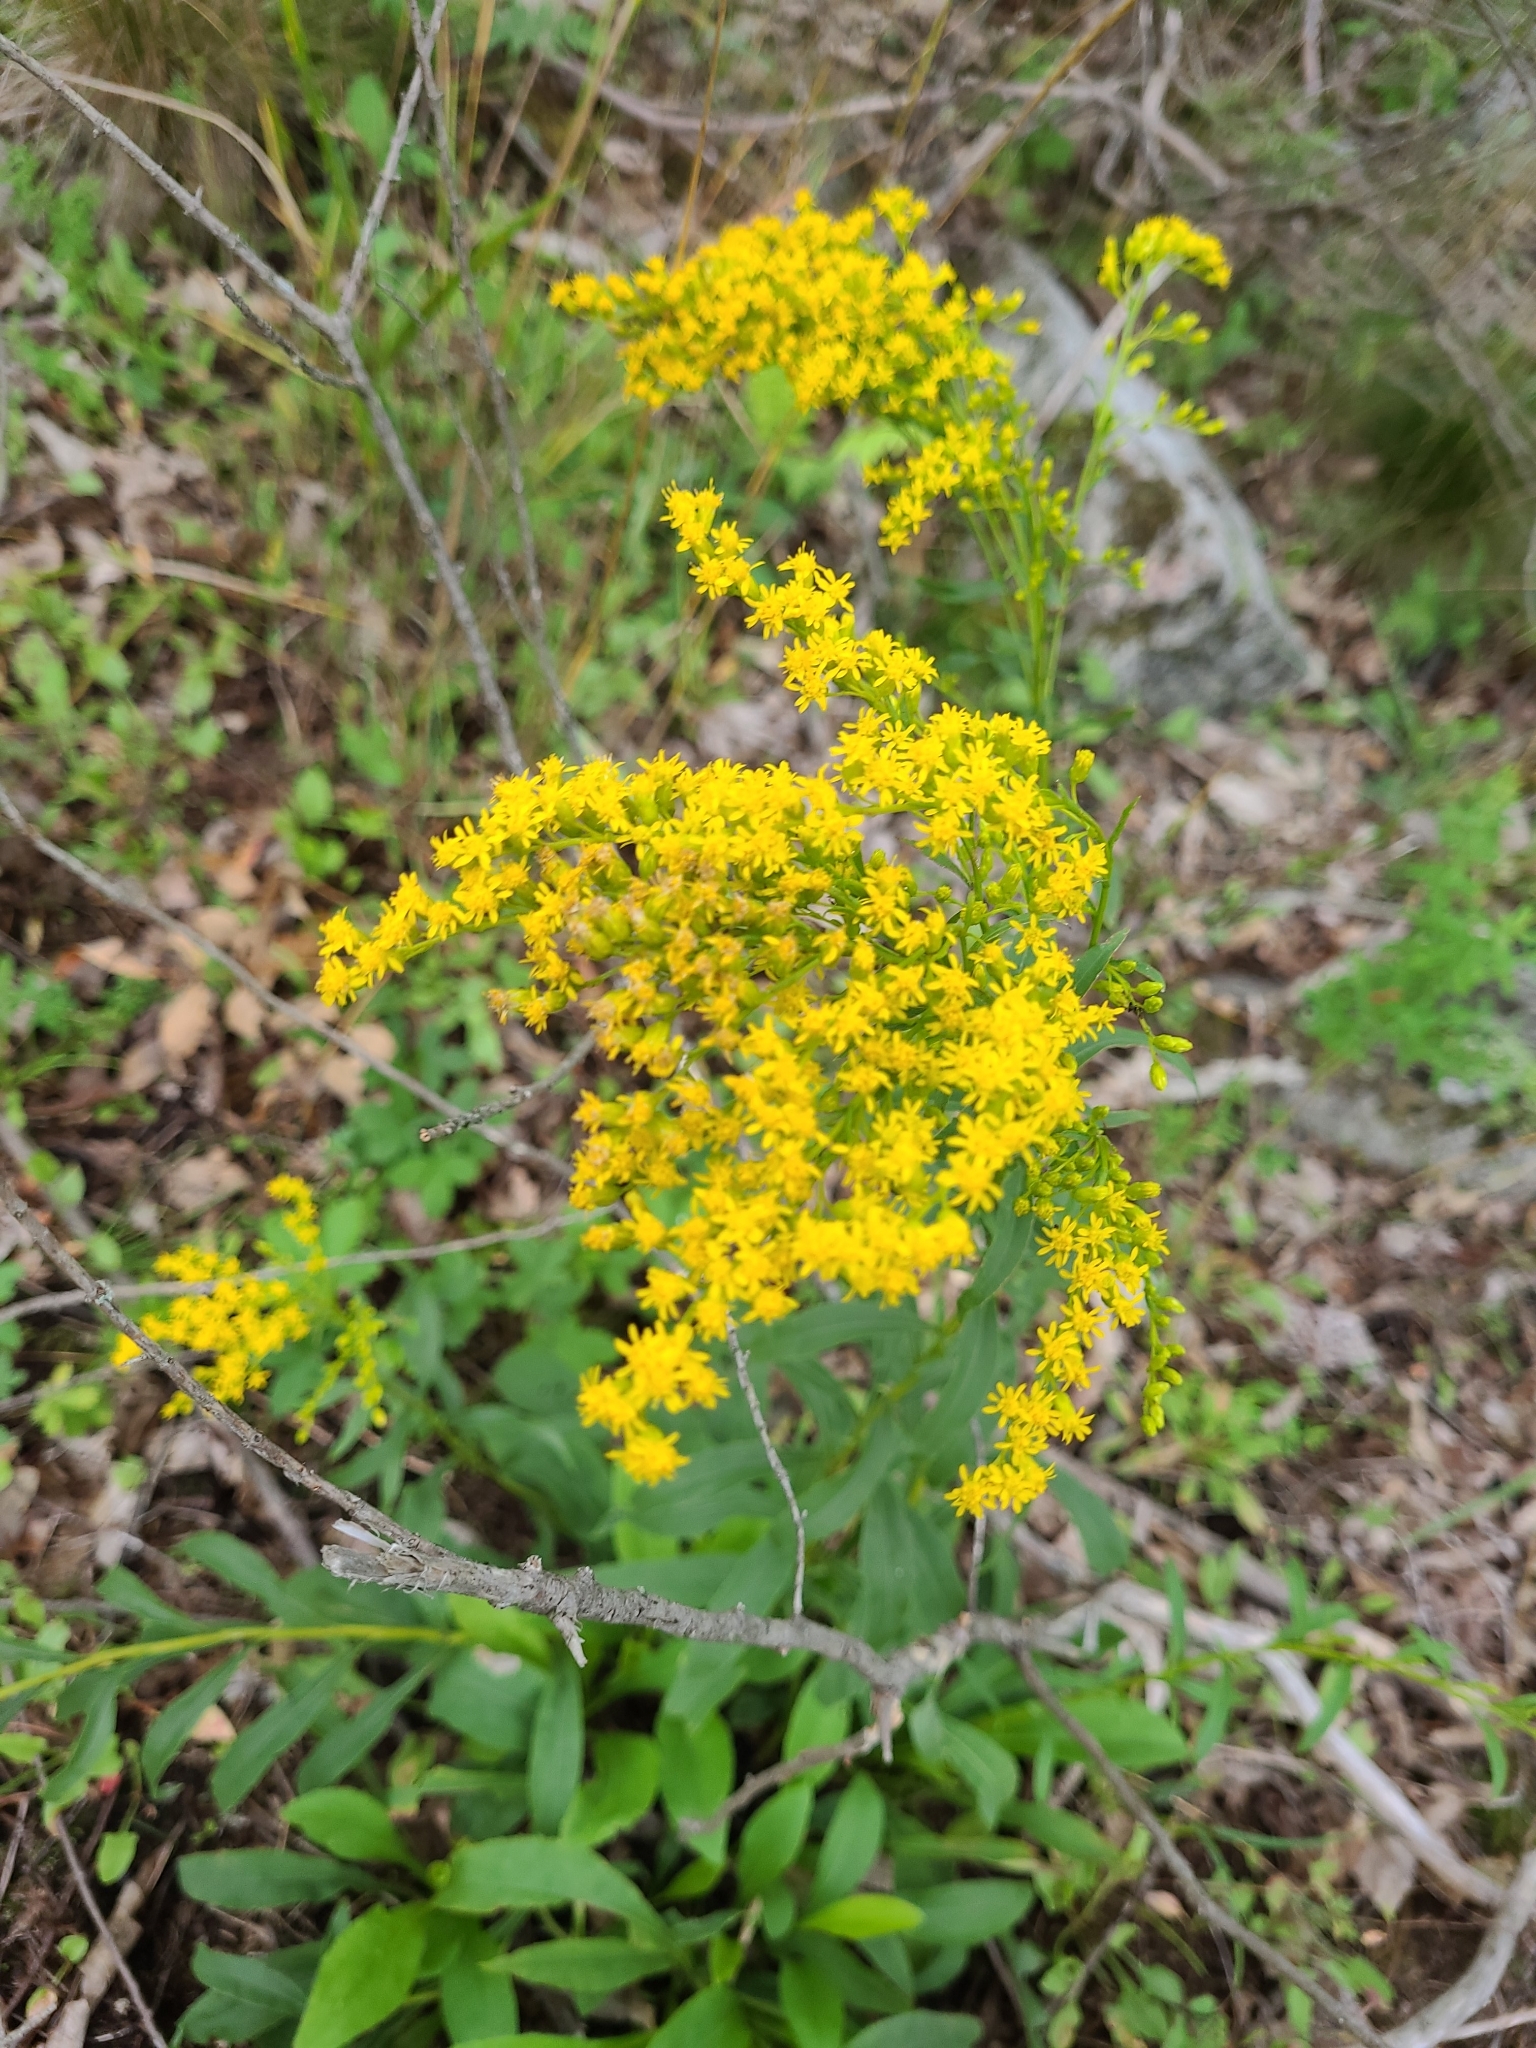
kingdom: Plantae
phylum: Tracheophyta
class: Magnoliopsida
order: Asterales
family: Asteraceae
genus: Solidago
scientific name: Solidago juncea
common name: Early goldenrod
